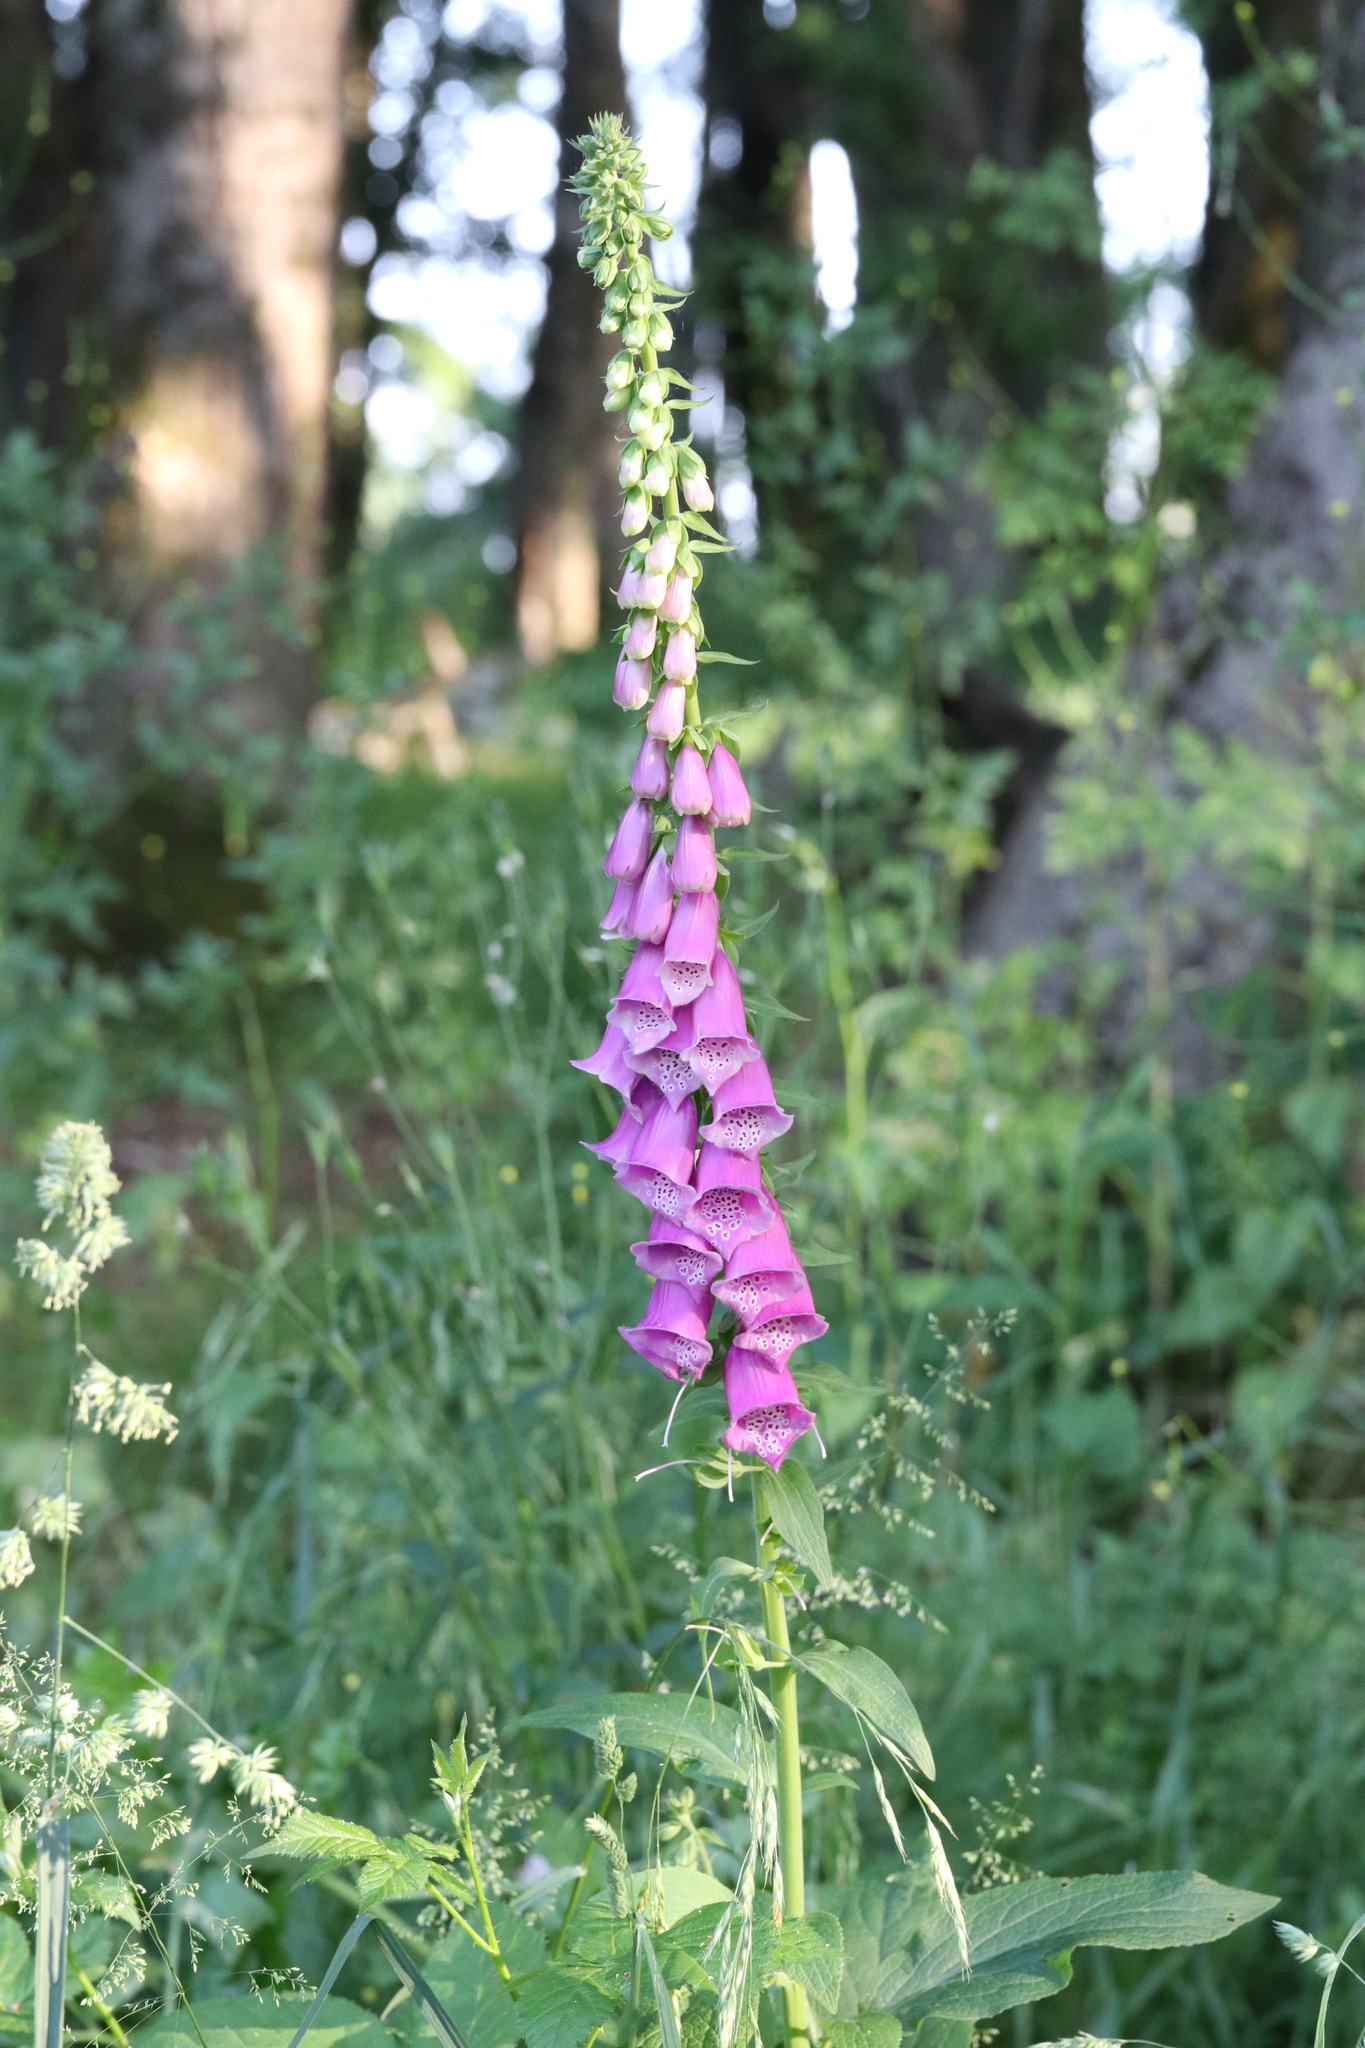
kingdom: Plantae
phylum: Tracheophyta
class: Magnoliopsida
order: Lamiales
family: Plantaginaceae
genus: Digitalis
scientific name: Digitalis purpurea
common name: Foxglove
